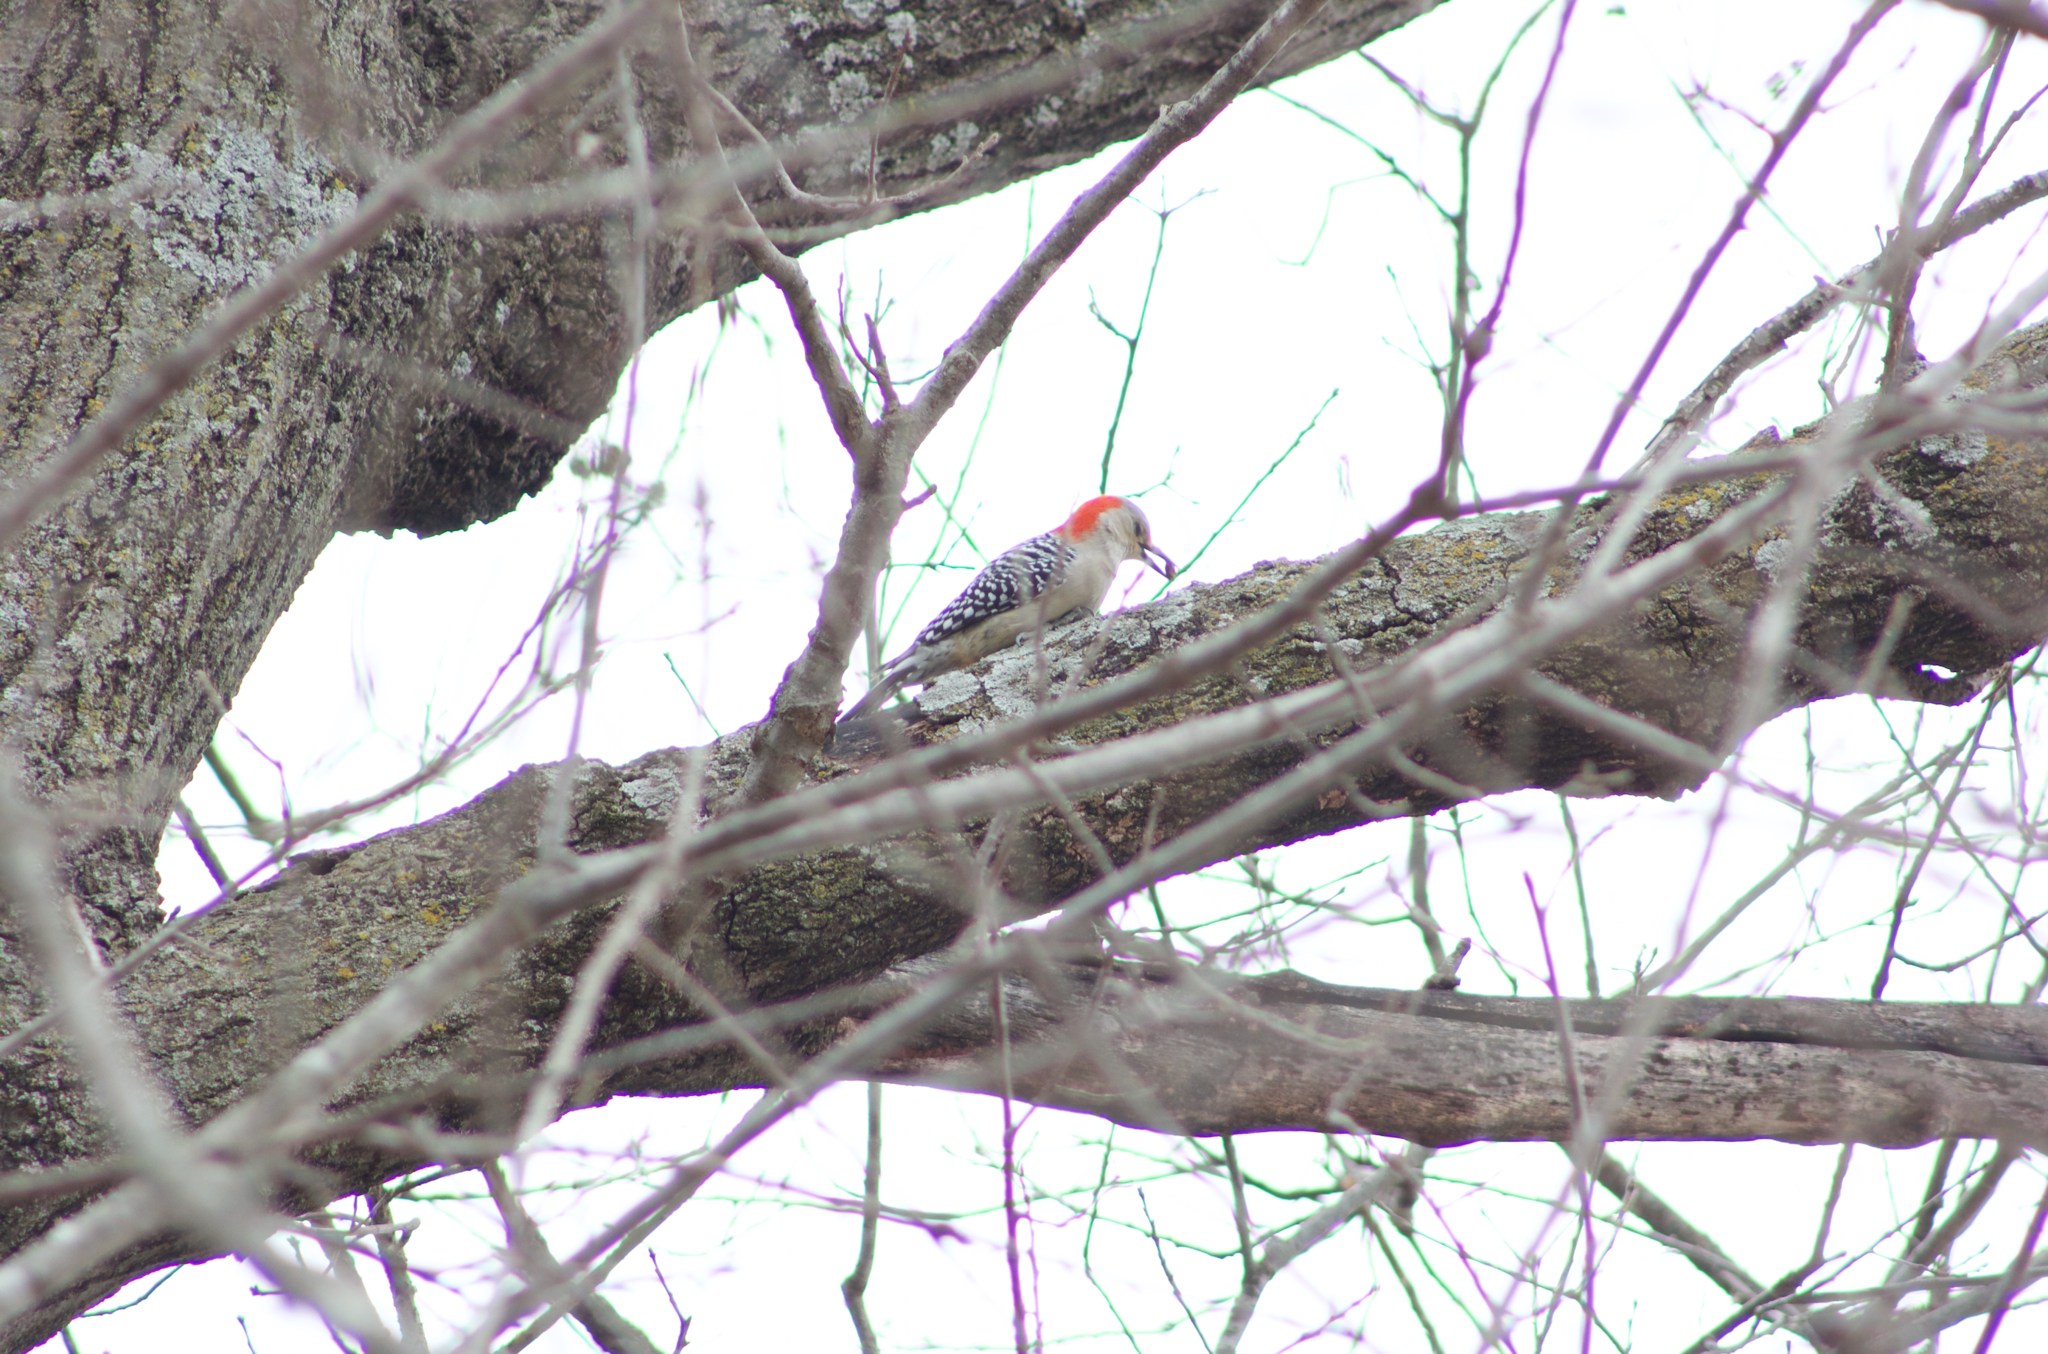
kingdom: Animalia
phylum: Chordata
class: Aves
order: Piciformes
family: Picidae
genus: Melanerpes
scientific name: Melanerpes carolinus
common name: Red-bellied woodpecker
